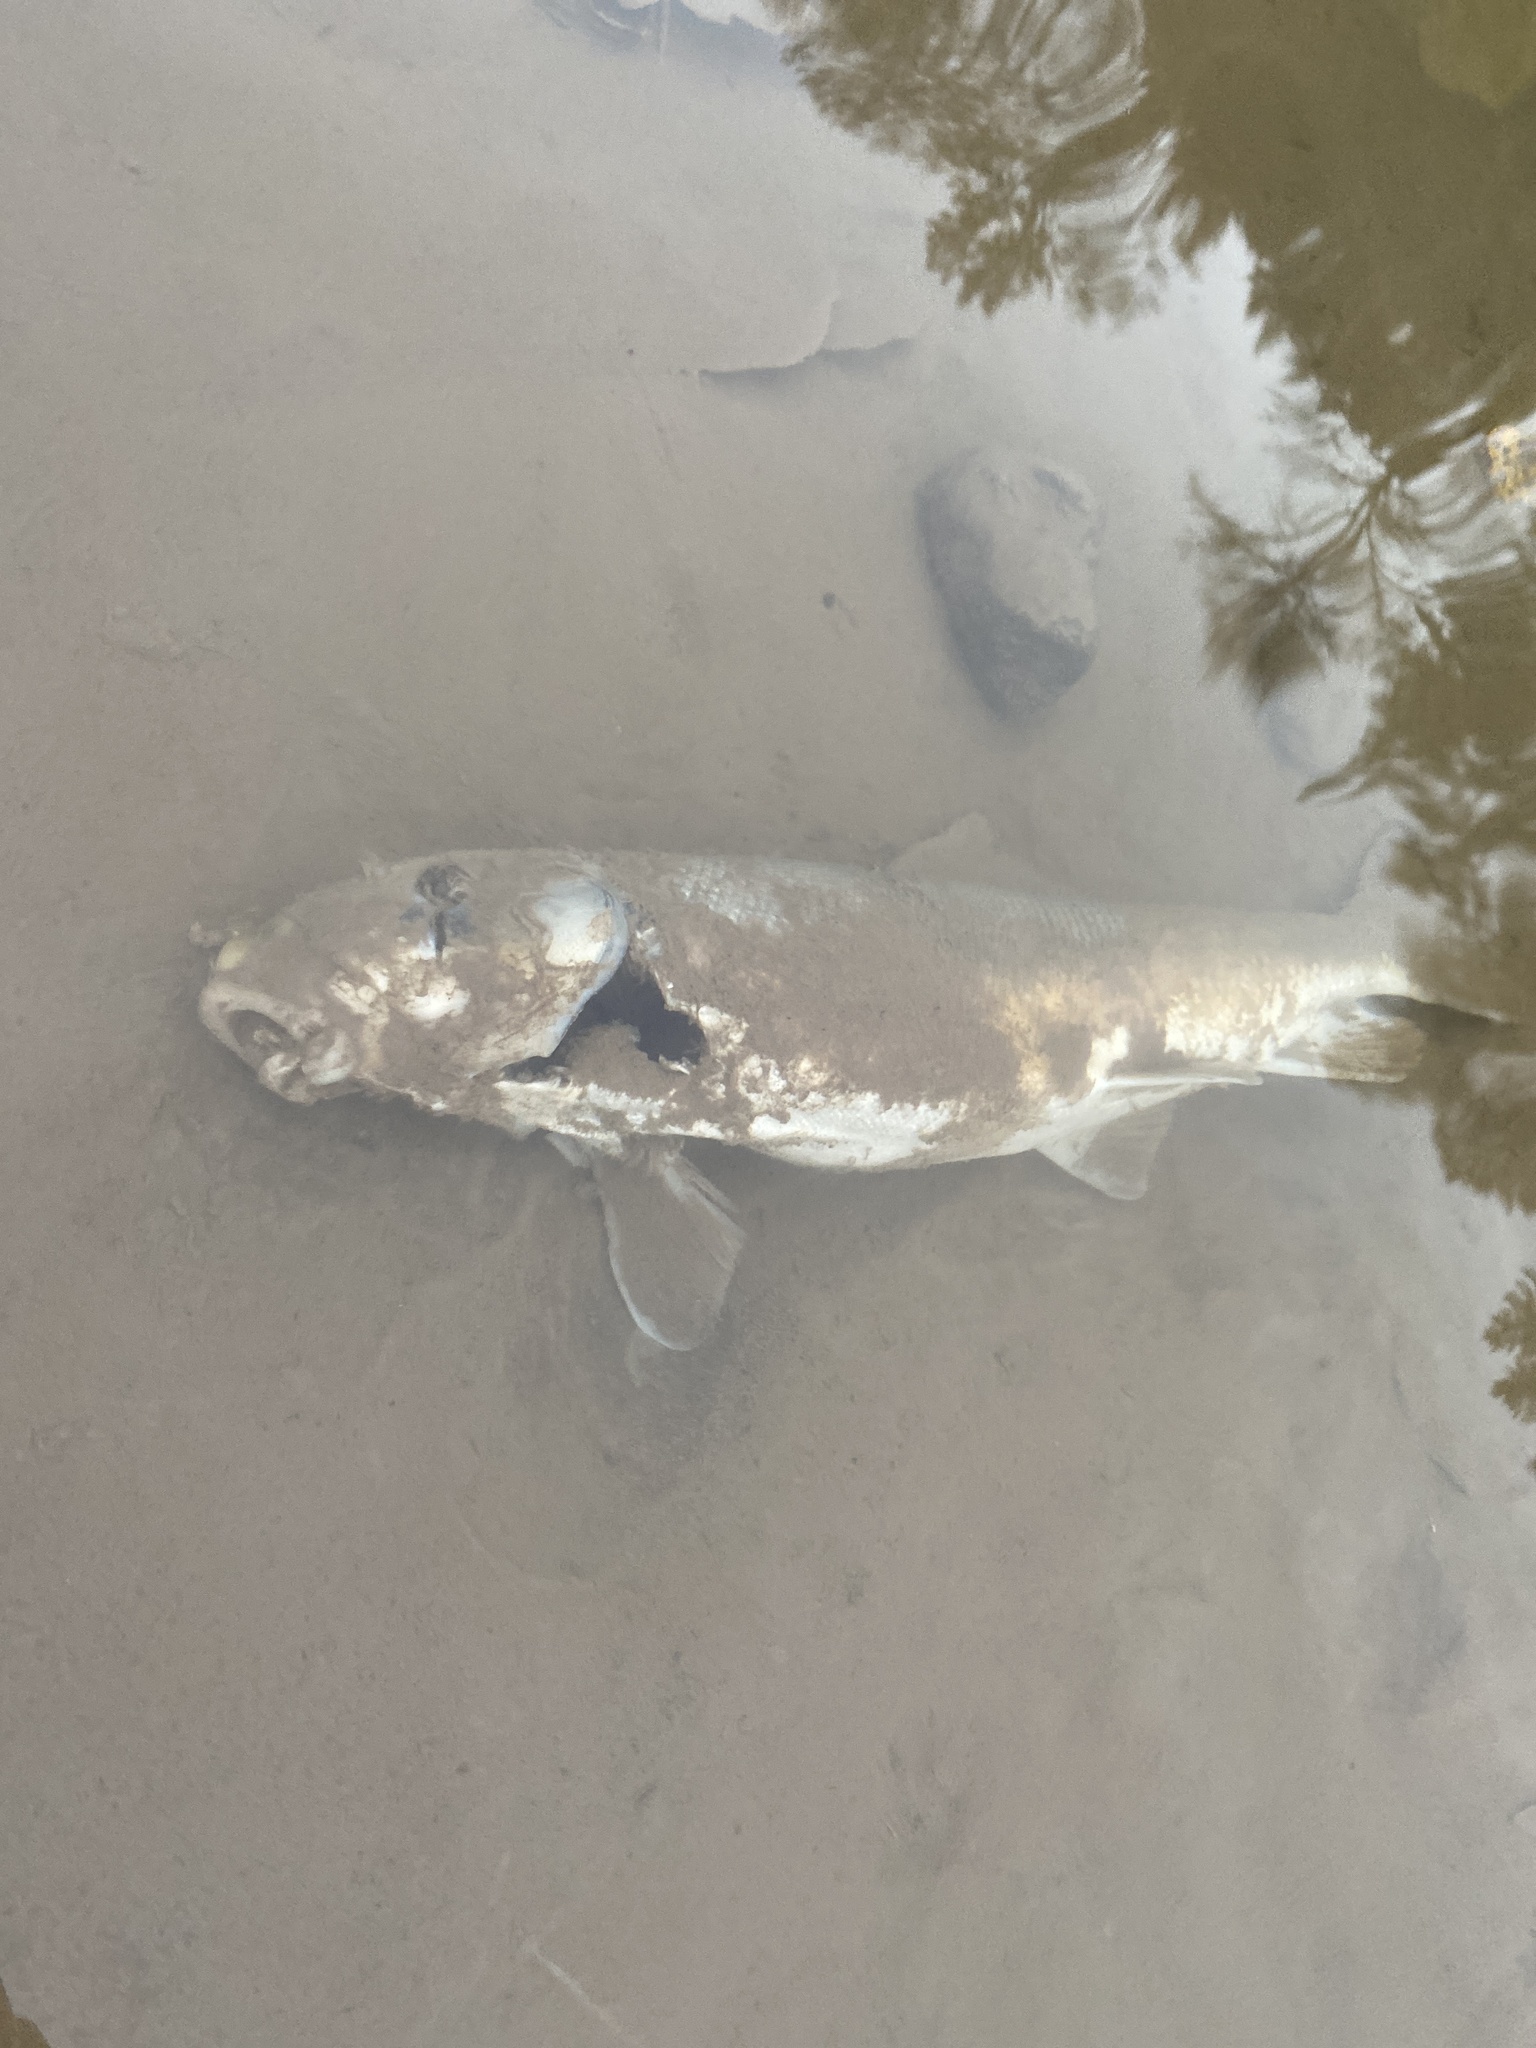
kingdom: Animalia
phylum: Chordata
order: Cypriniformes
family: Catostomidae
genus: Catostomus
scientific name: Catostomus macrocheilus
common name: Largescale sucker
